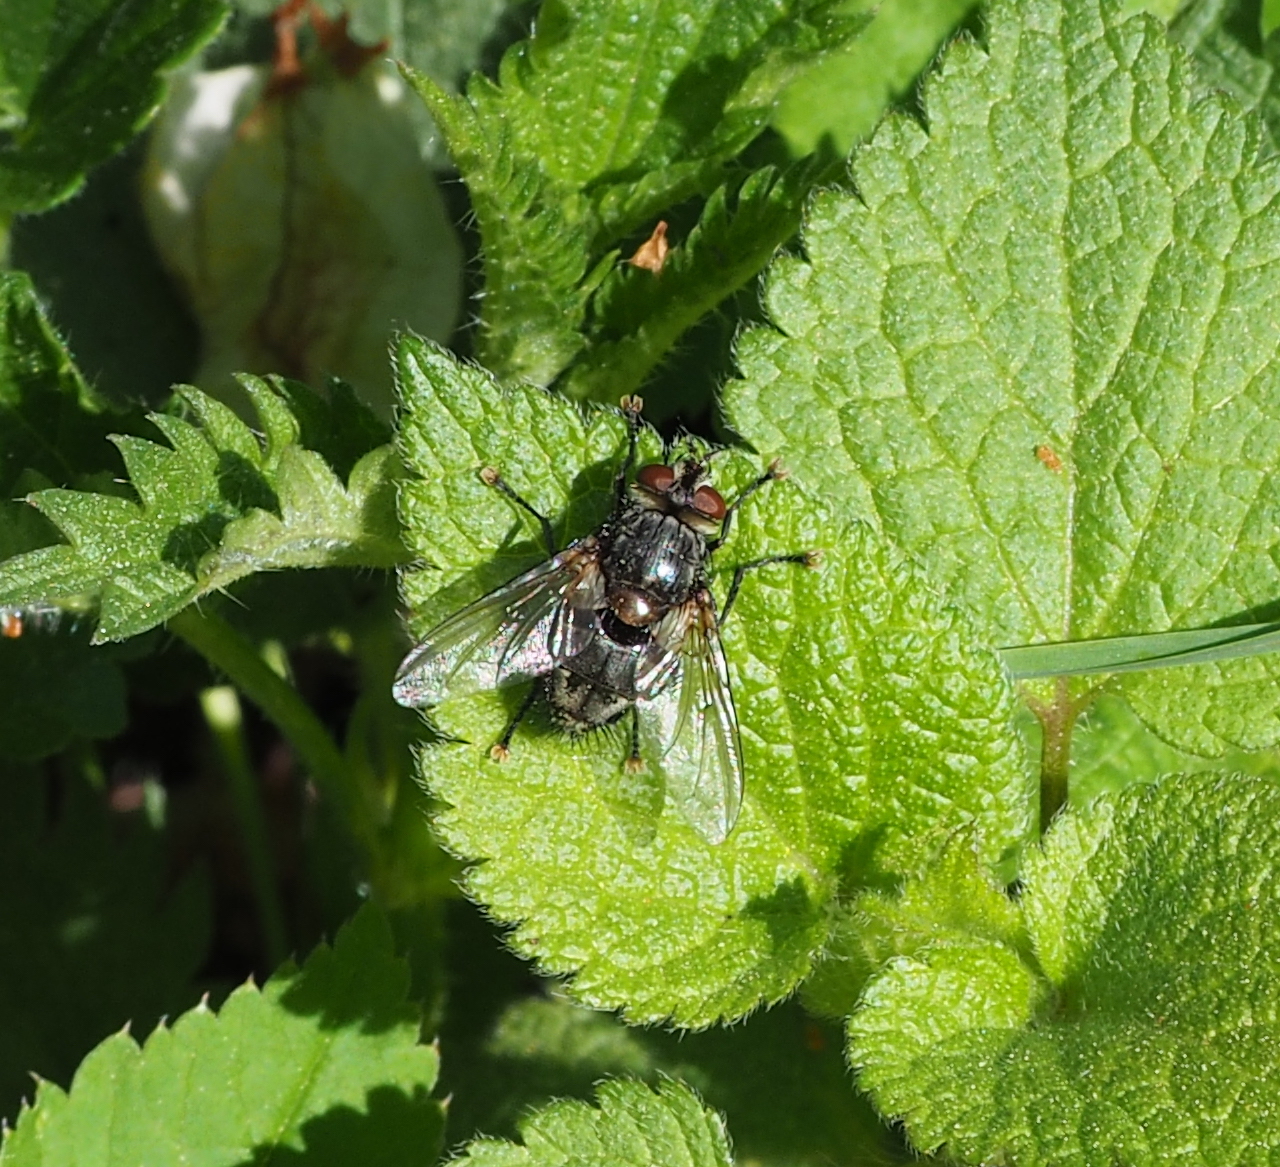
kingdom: Animalia
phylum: Arthropoda
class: Insecta
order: Diptera
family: Tachinidae
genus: Blepharipa
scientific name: Blepharipa pratensis
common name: Parasitic fly
